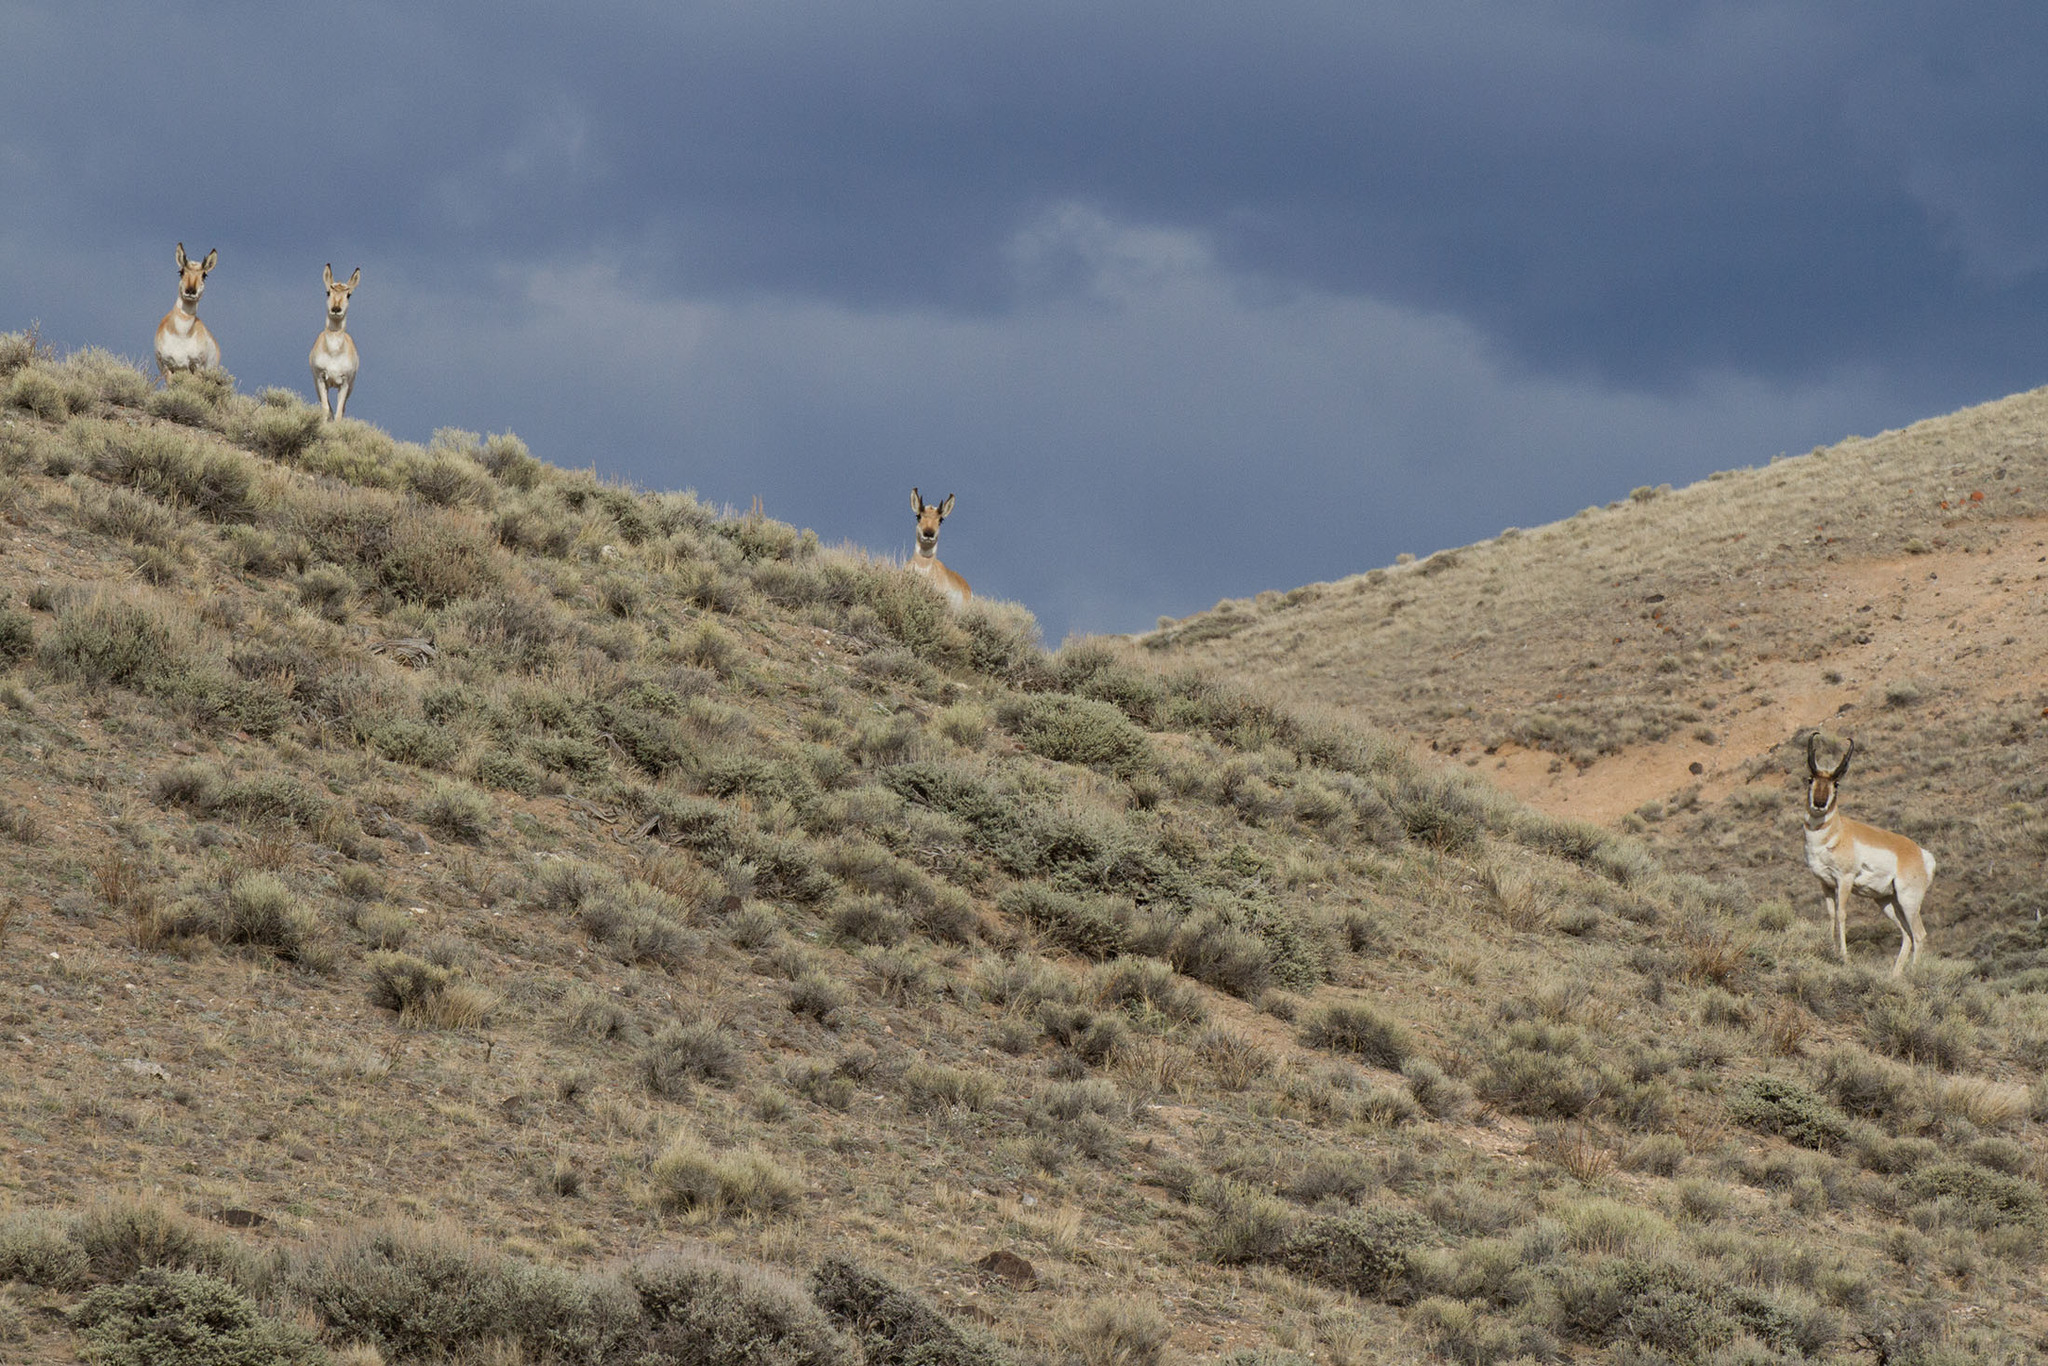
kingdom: Animalia
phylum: Chordata
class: Mammalia
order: Artiodactyla
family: Antilocapridae
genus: Antilocapra
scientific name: Antilocapra americana
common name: Pronghorn
